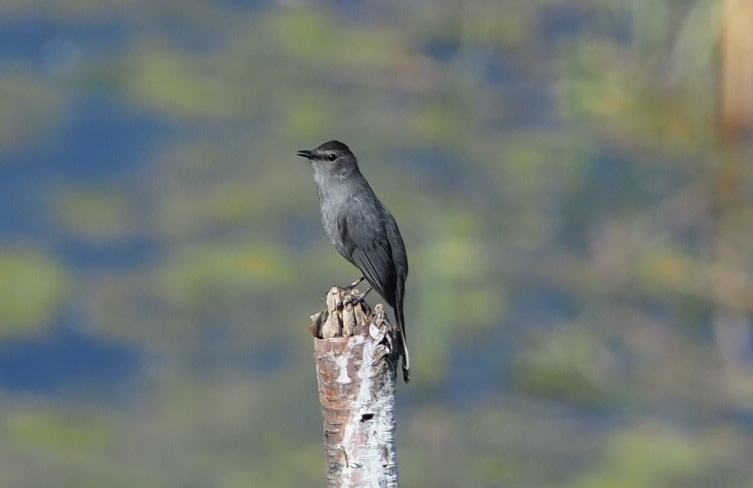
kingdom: Animalia
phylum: Chordata
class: Aves
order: Passeriformes
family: Mimidae
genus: Dumetella
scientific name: Dumetella carolinensis
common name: Gray catbird
